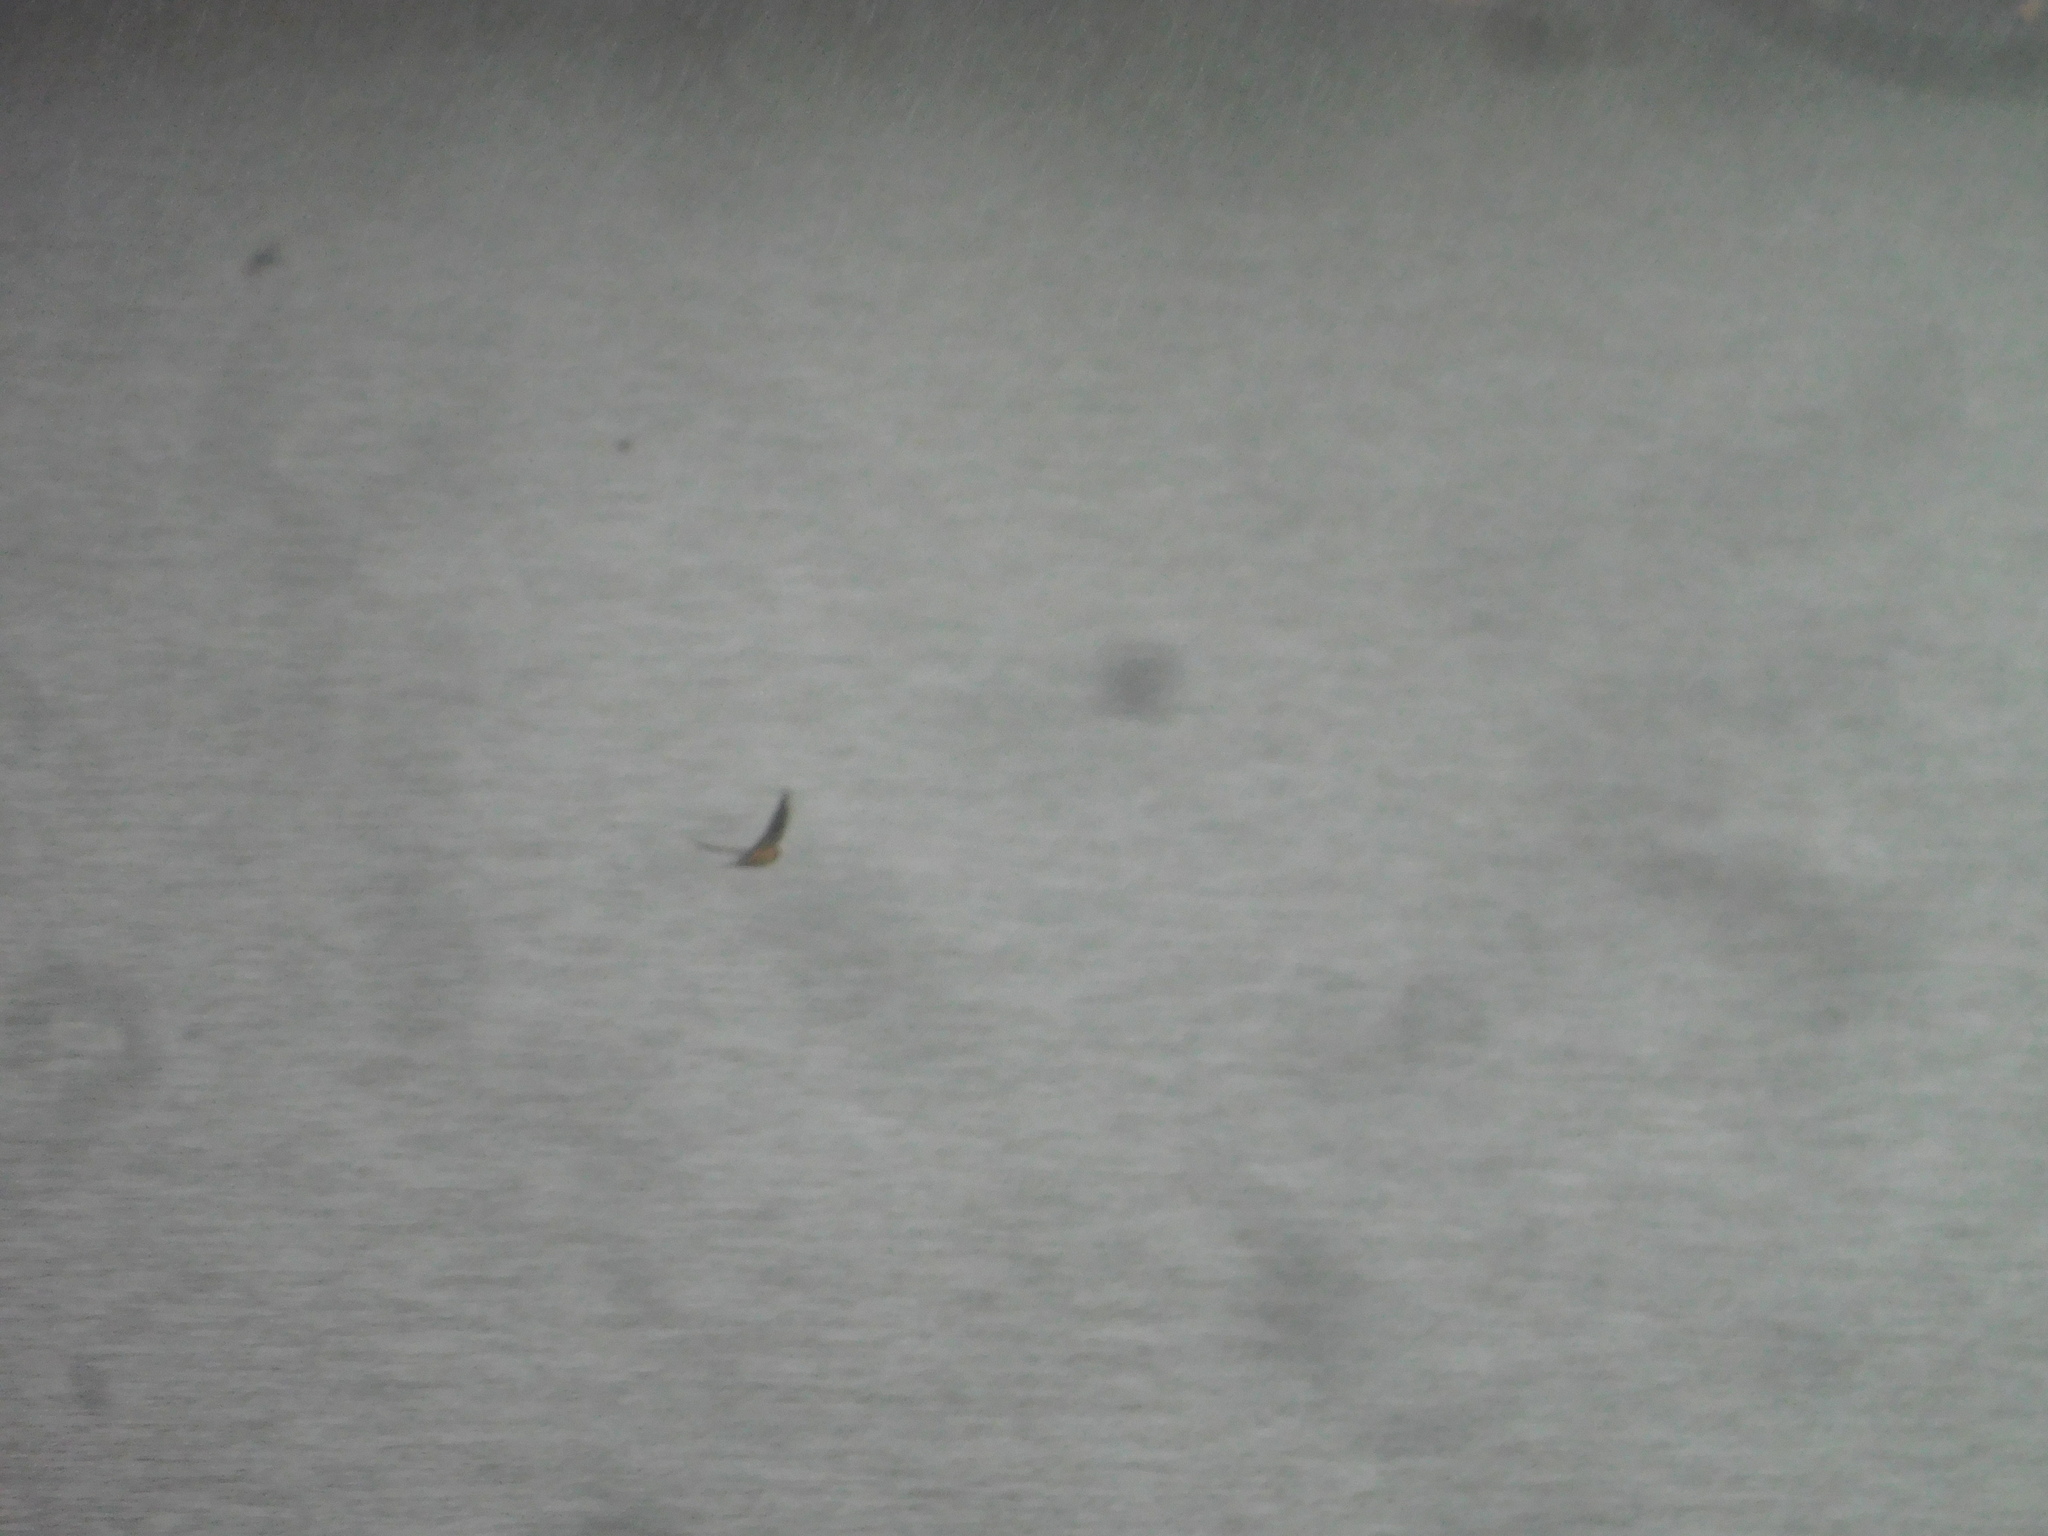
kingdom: Animalia
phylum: Chordata
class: Aves
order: Passeriformes
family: Hirundinidae
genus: Hirundo
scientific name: Hirundo rustica
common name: Barn swallow
